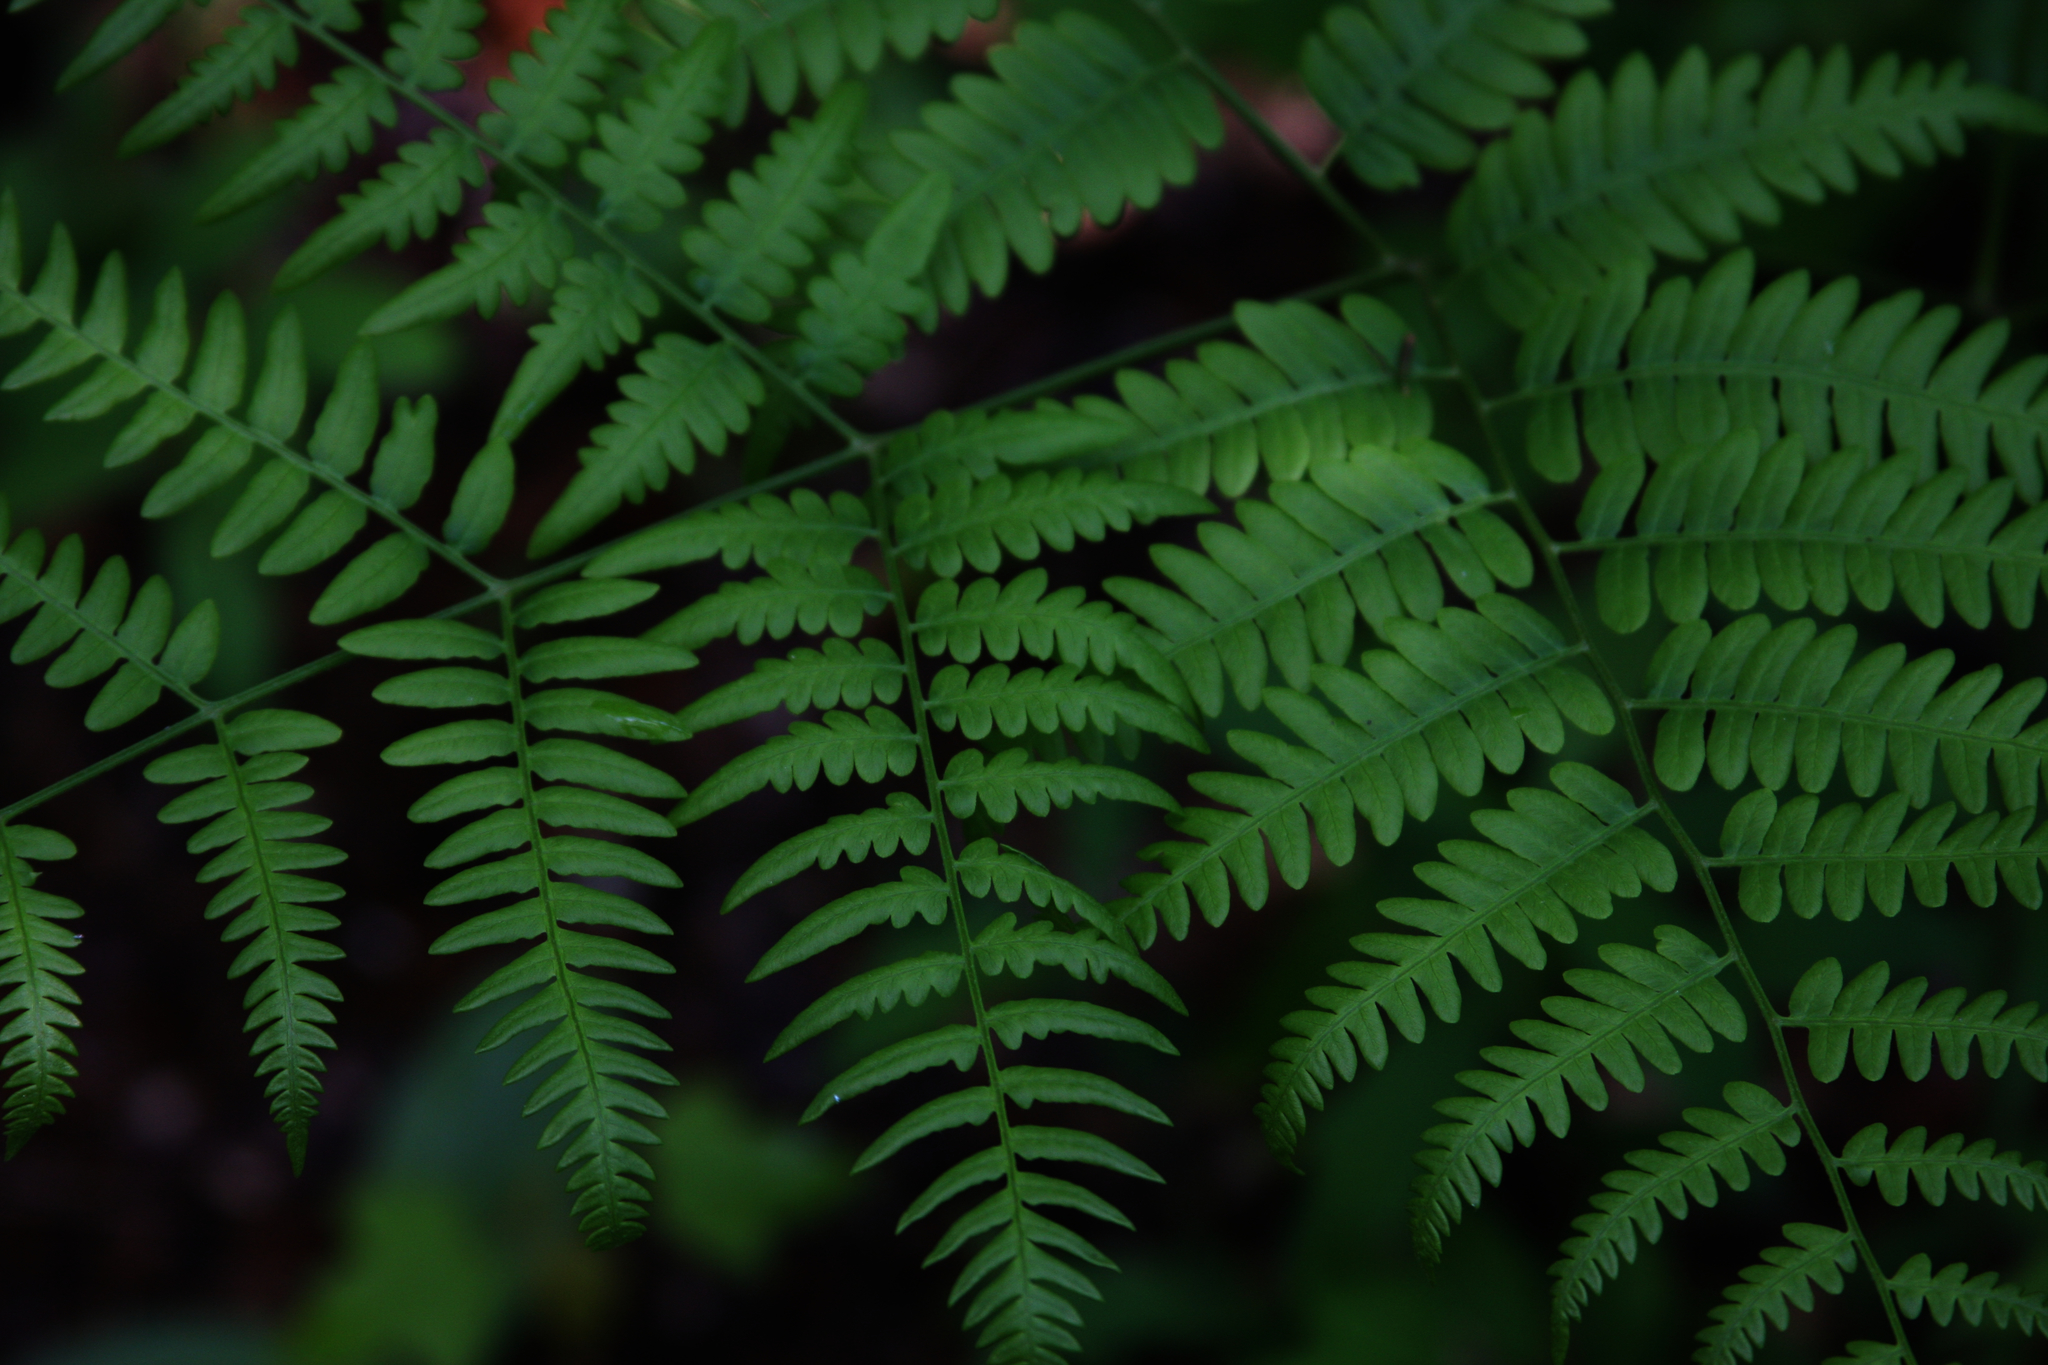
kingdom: Plantae
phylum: Tracheophyta
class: Polypodiopsida
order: Polypodiales
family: Dennstaedtiaceae
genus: Pteridium
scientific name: Pteridium aquilinum
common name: Bracken
